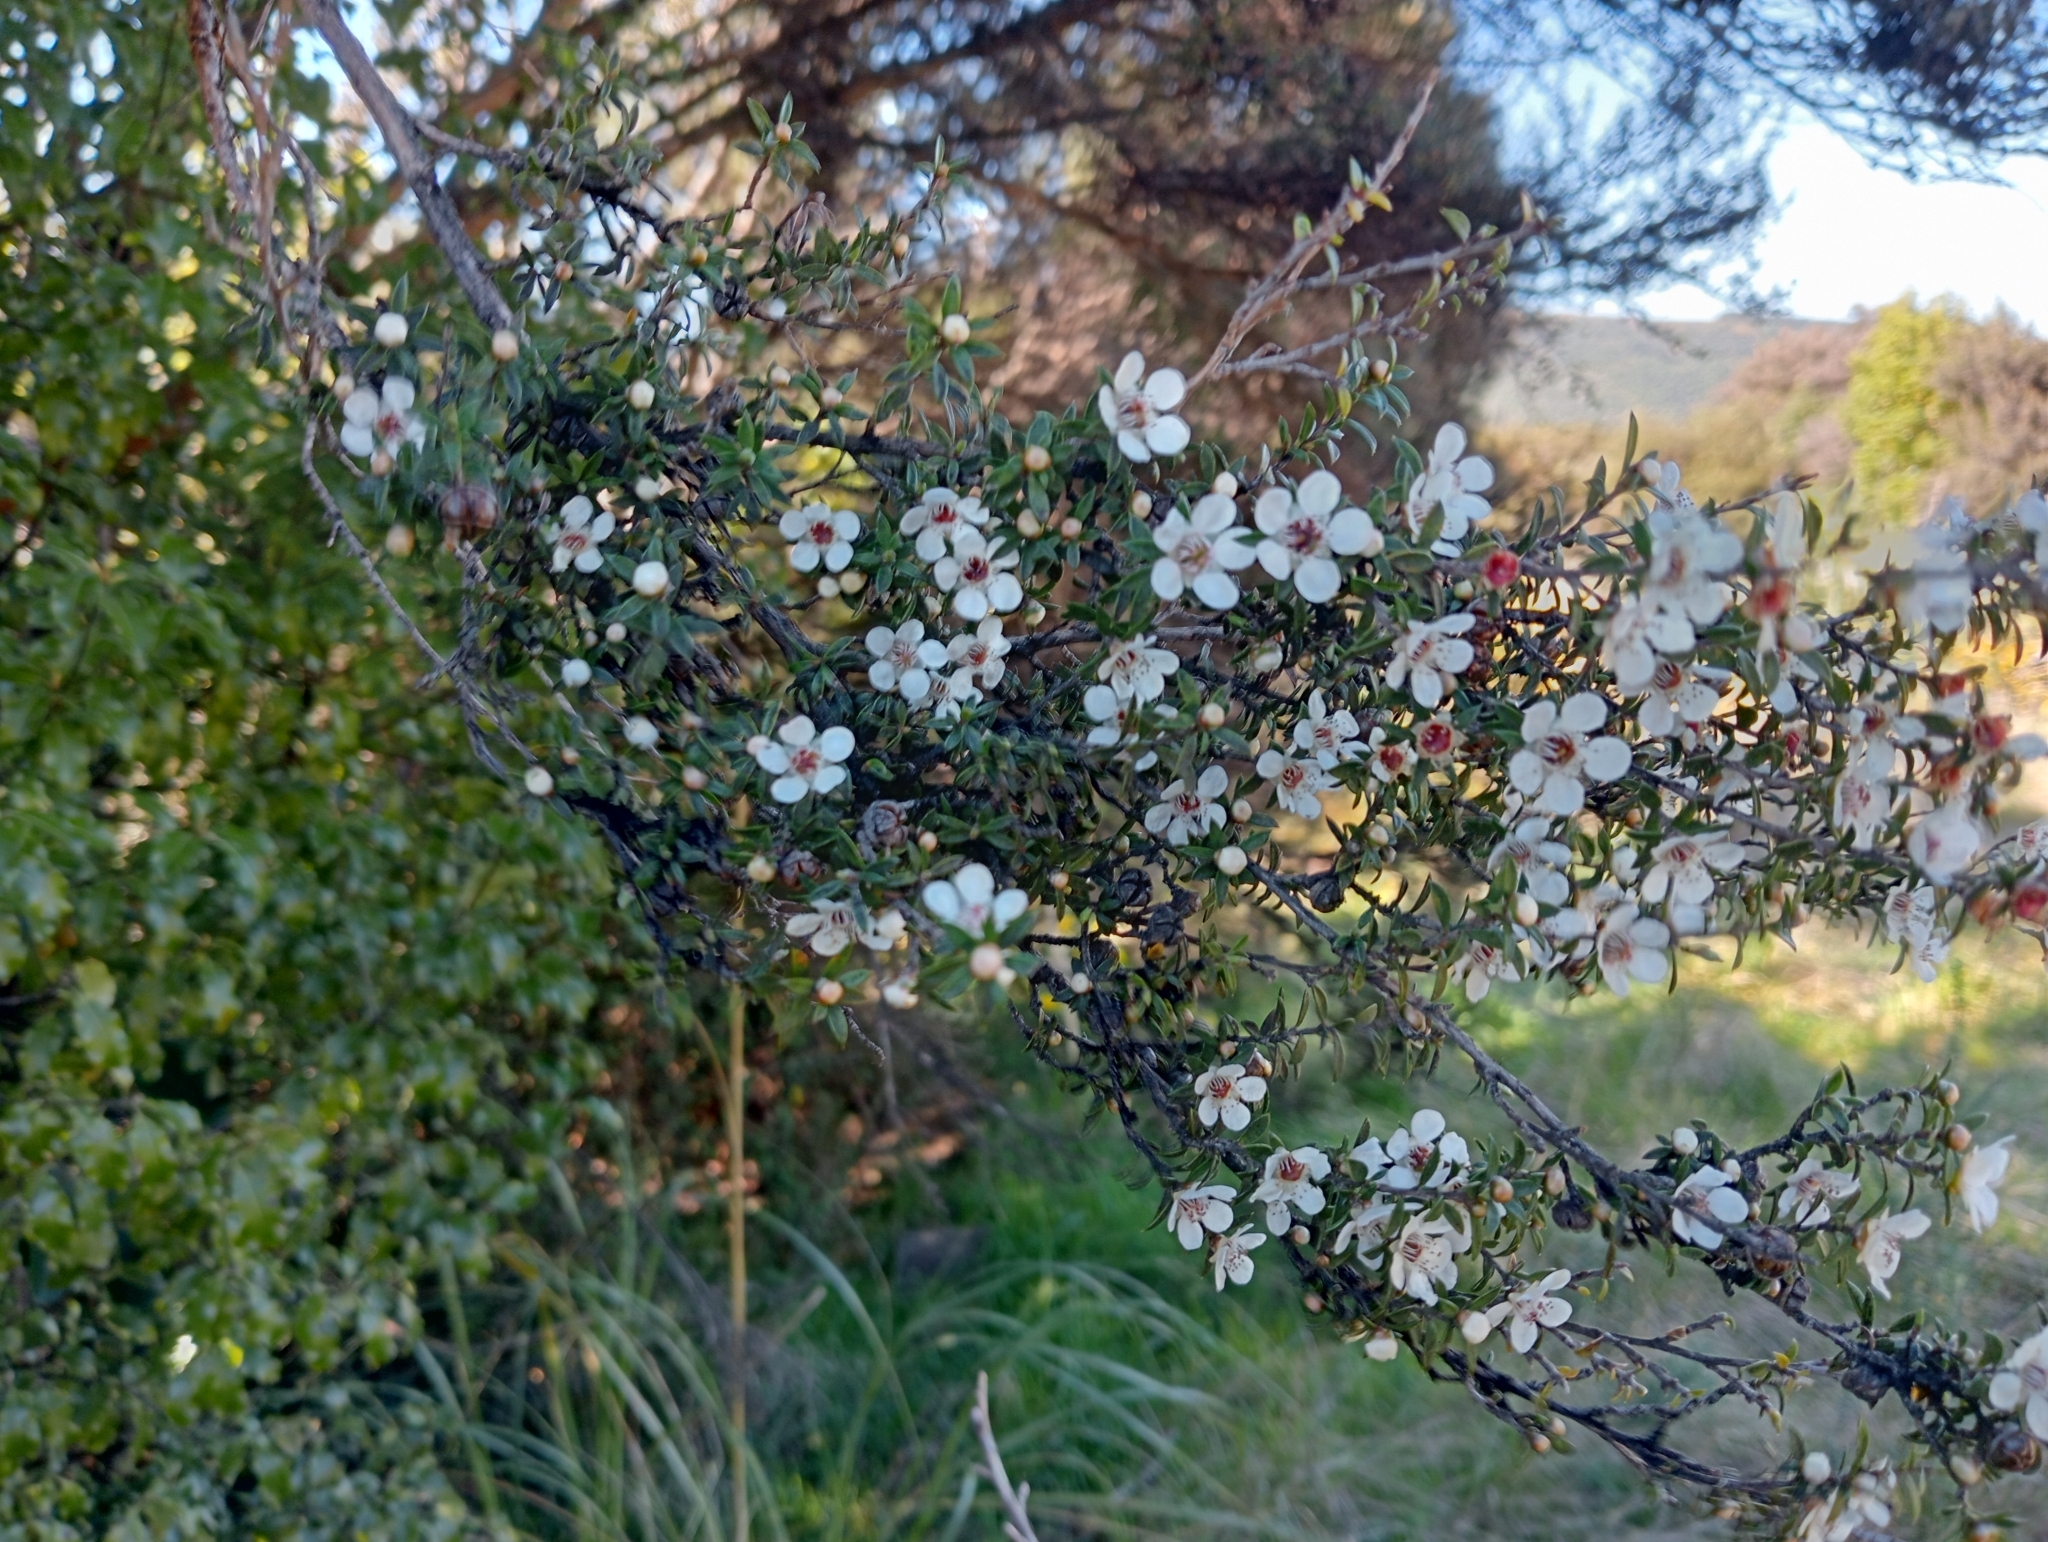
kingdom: Plantae
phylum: Tracheophyta
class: Magnoliopsida
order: Myrtales
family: Myrtaceae
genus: Leptospermum
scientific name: Leptospermum scoparium
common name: Broom tea-tree
